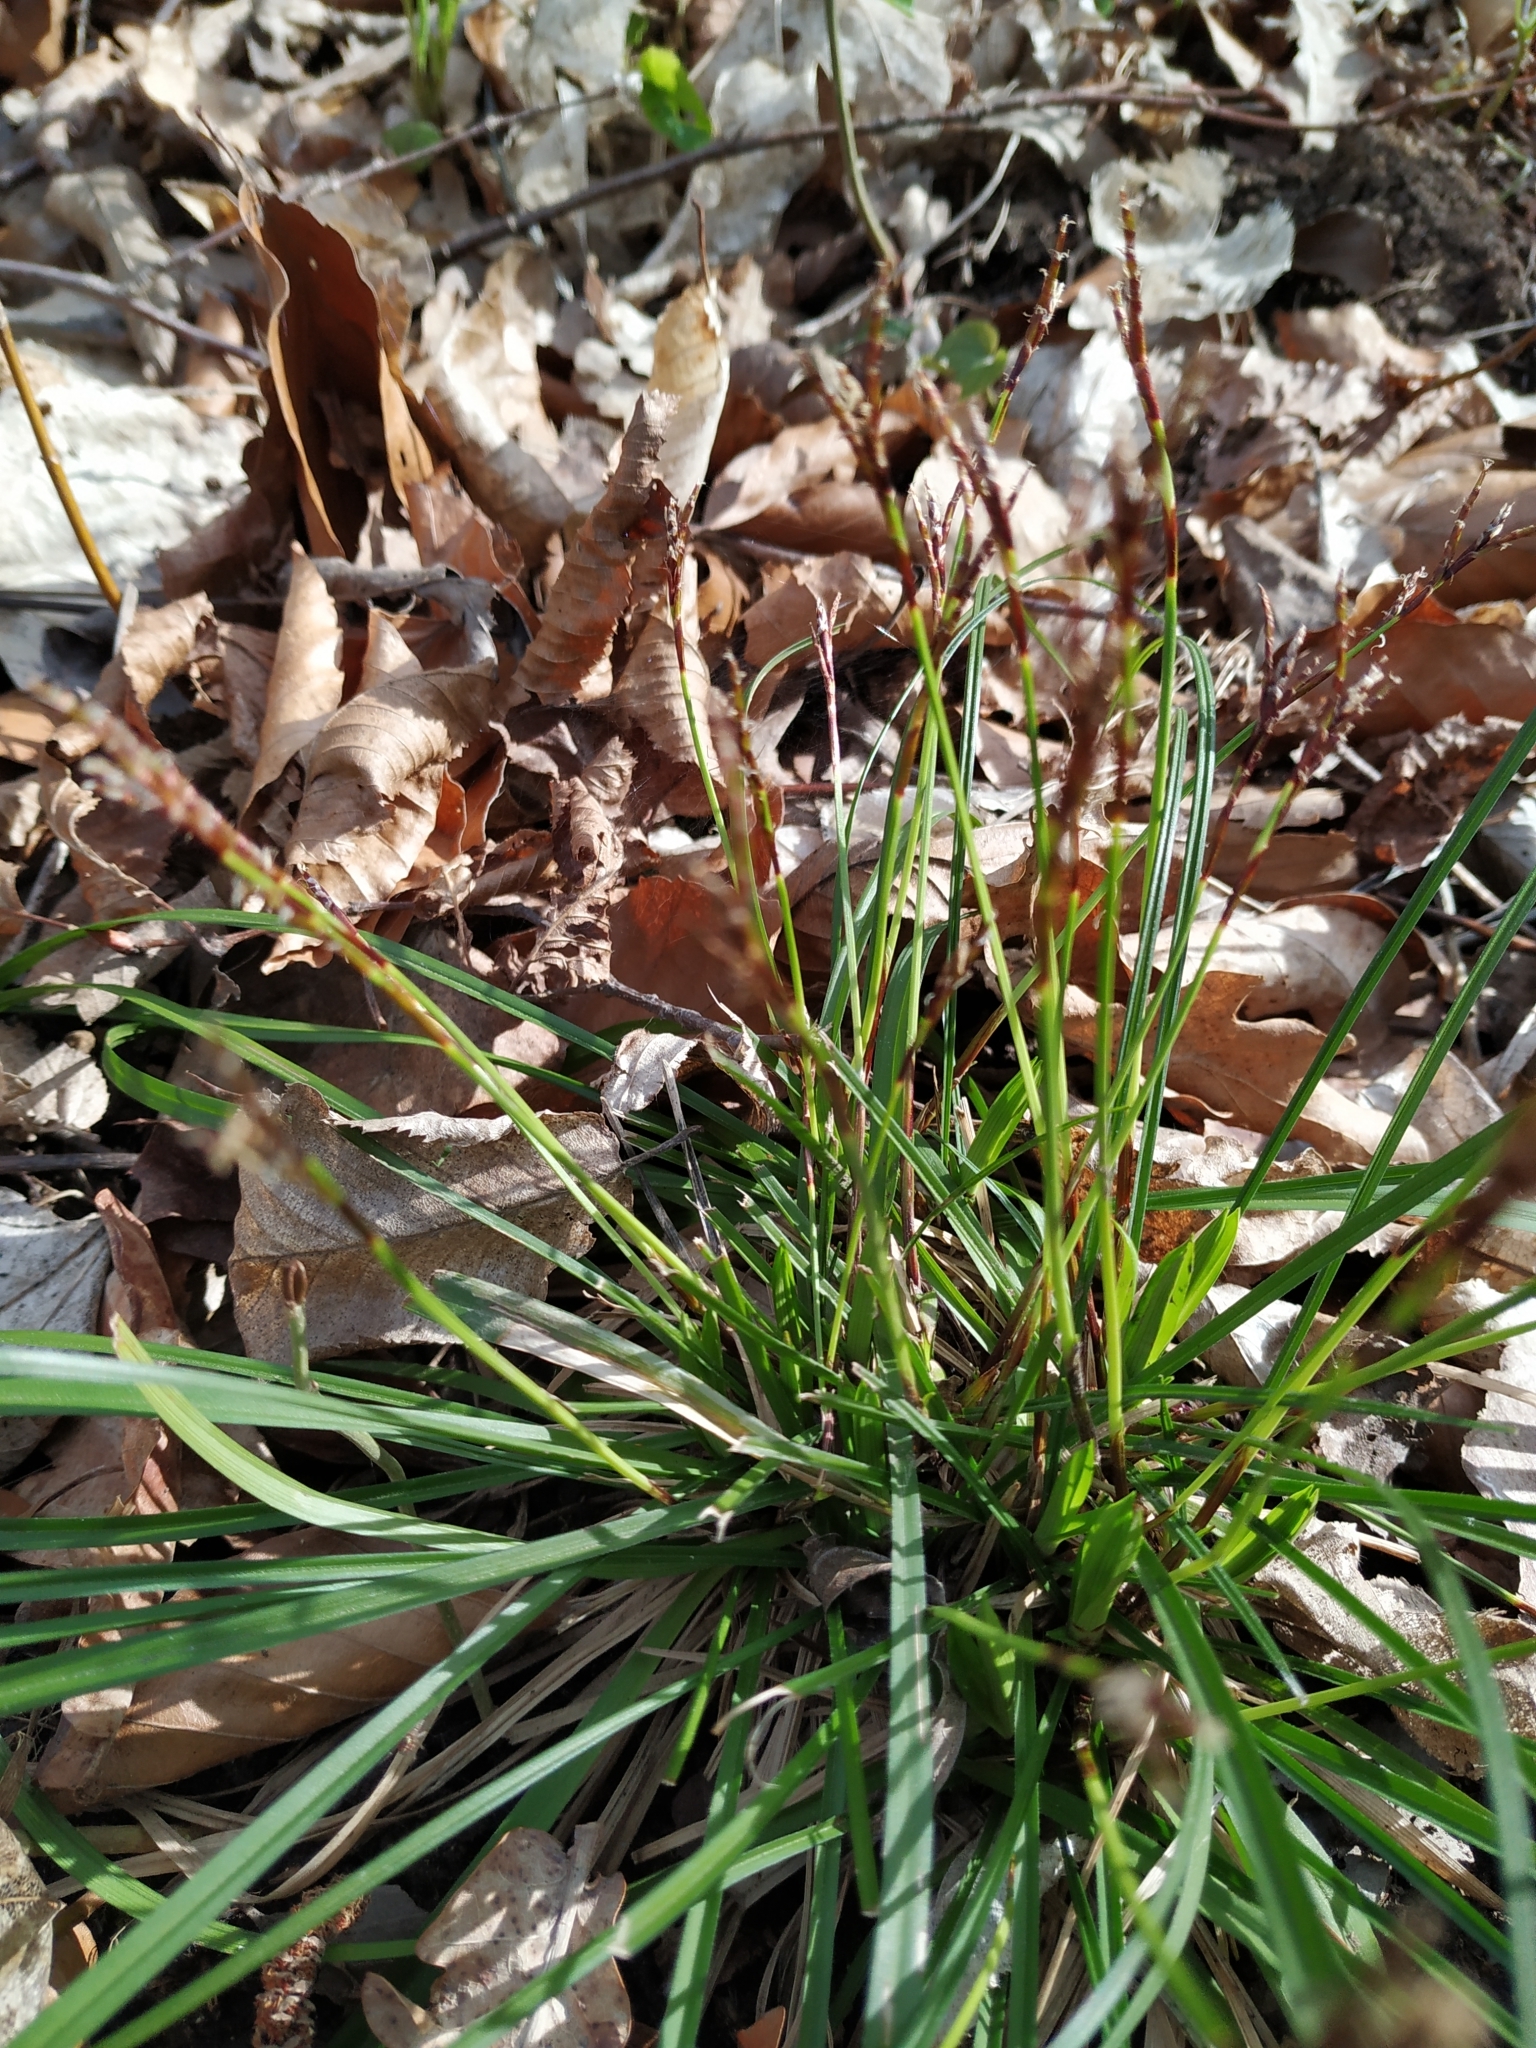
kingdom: Plantae
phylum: Tracheophyta
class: Liliopsida
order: Poales
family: Cyperaceae
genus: Carex
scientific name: Carex digitata
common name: Fingered sedge
